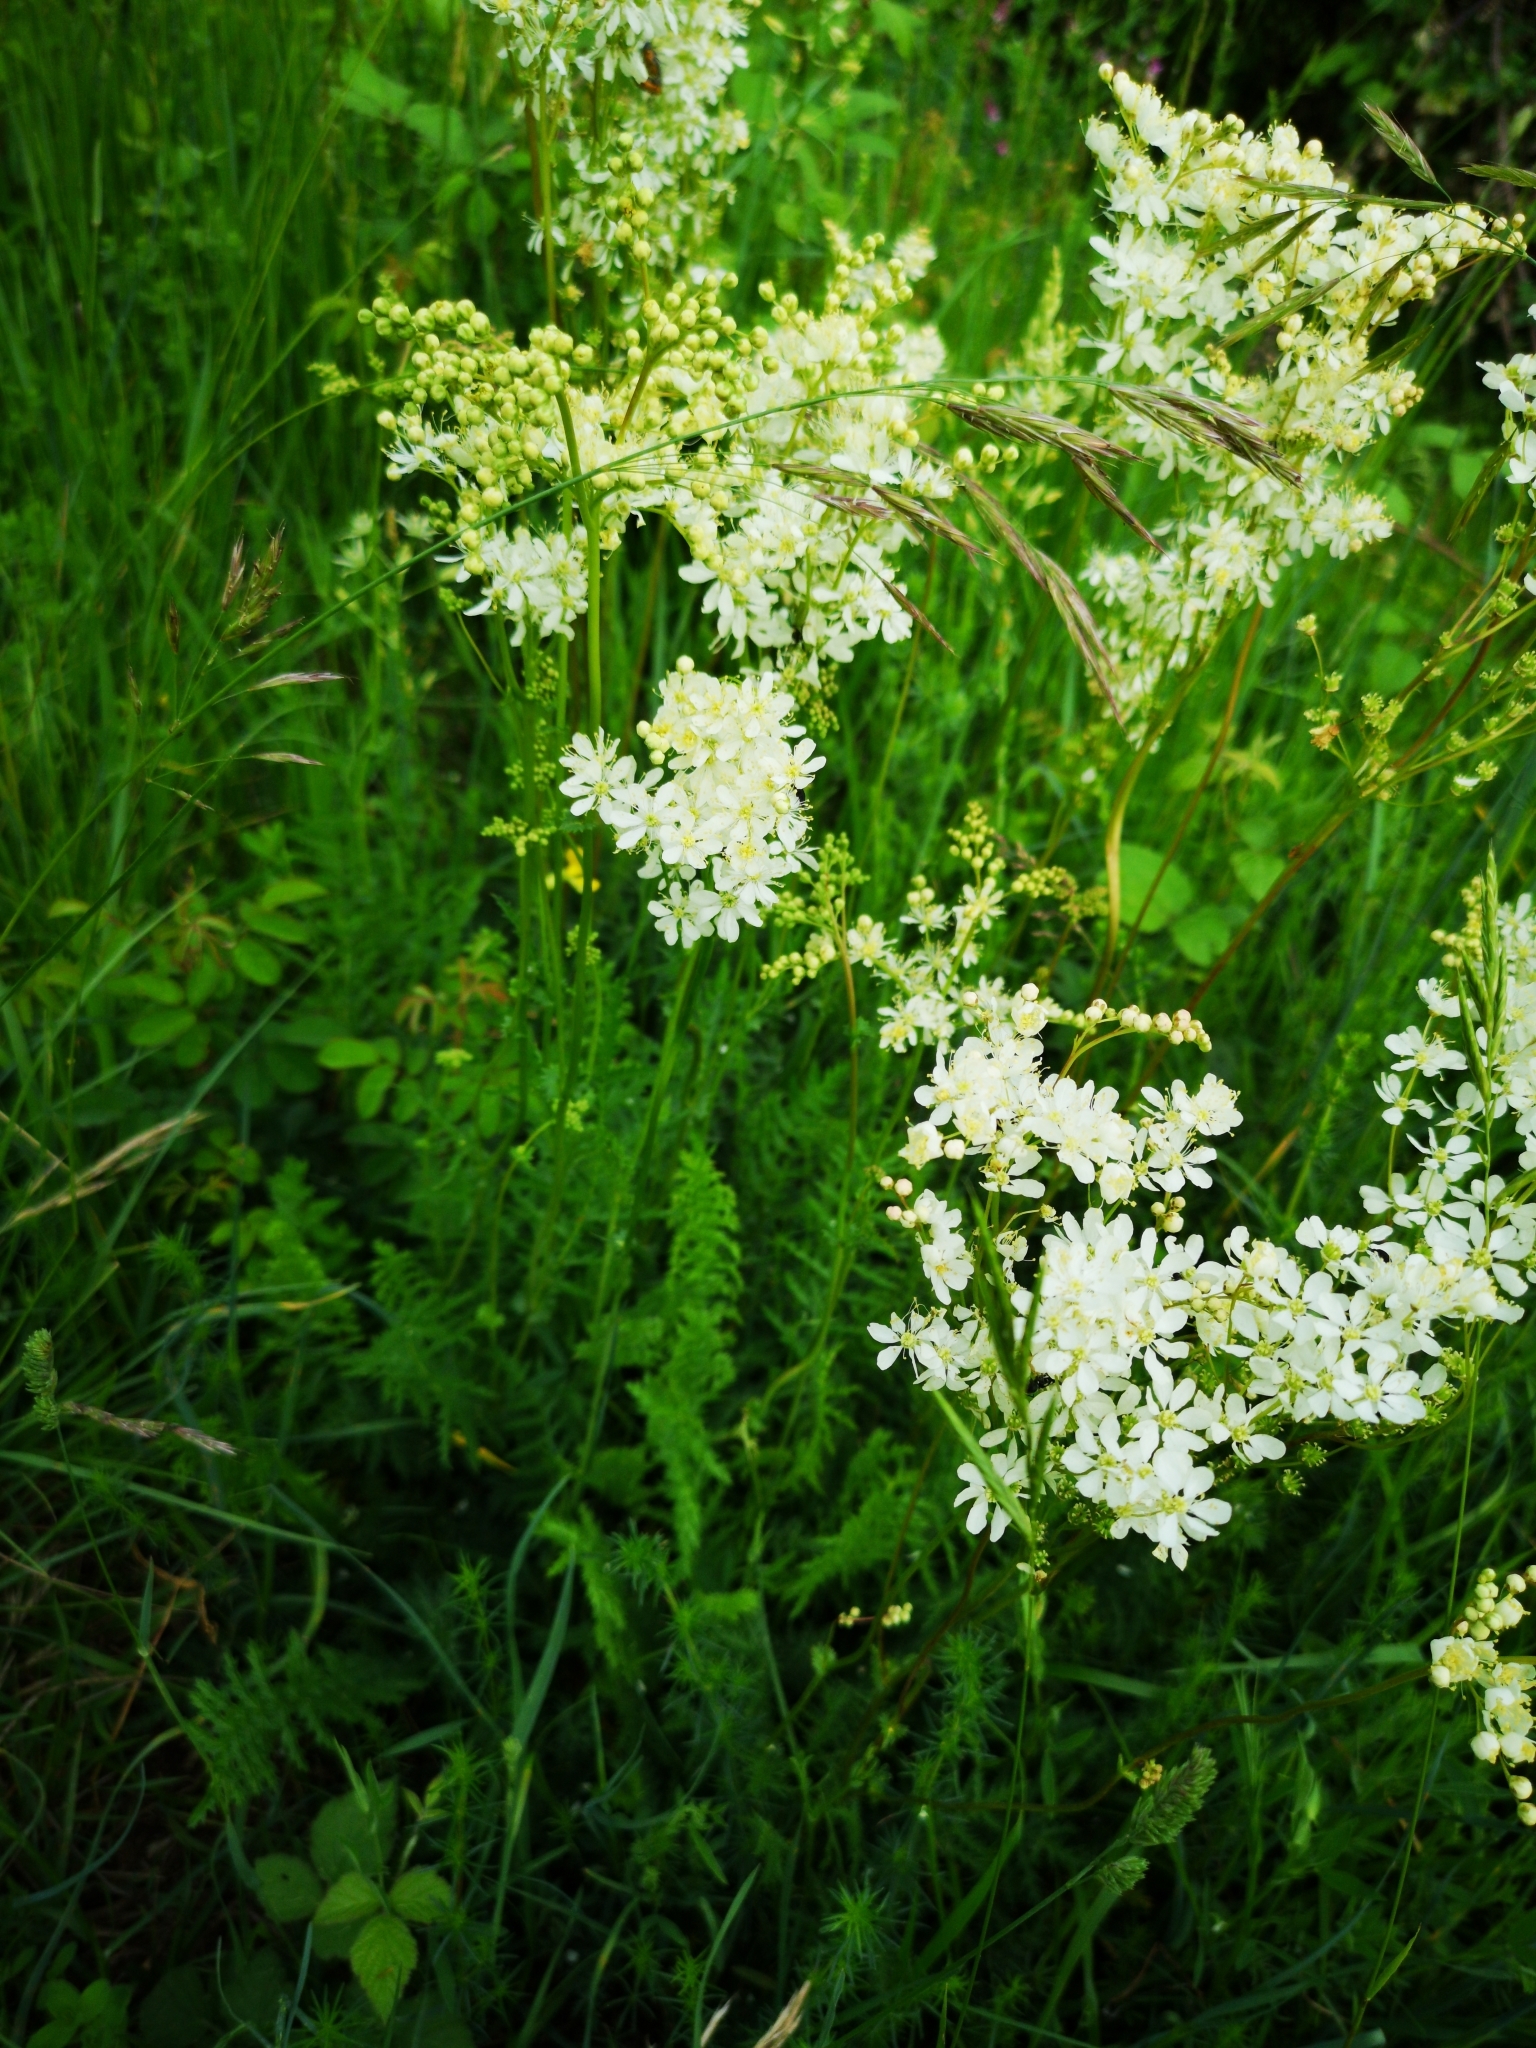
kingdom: Plantae
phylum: Tracheophyta
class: Magnoliopsida
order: Rosales
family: Rosaceae
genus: Filipendula
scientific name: Filipendula vulgaris
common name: Dropwort
